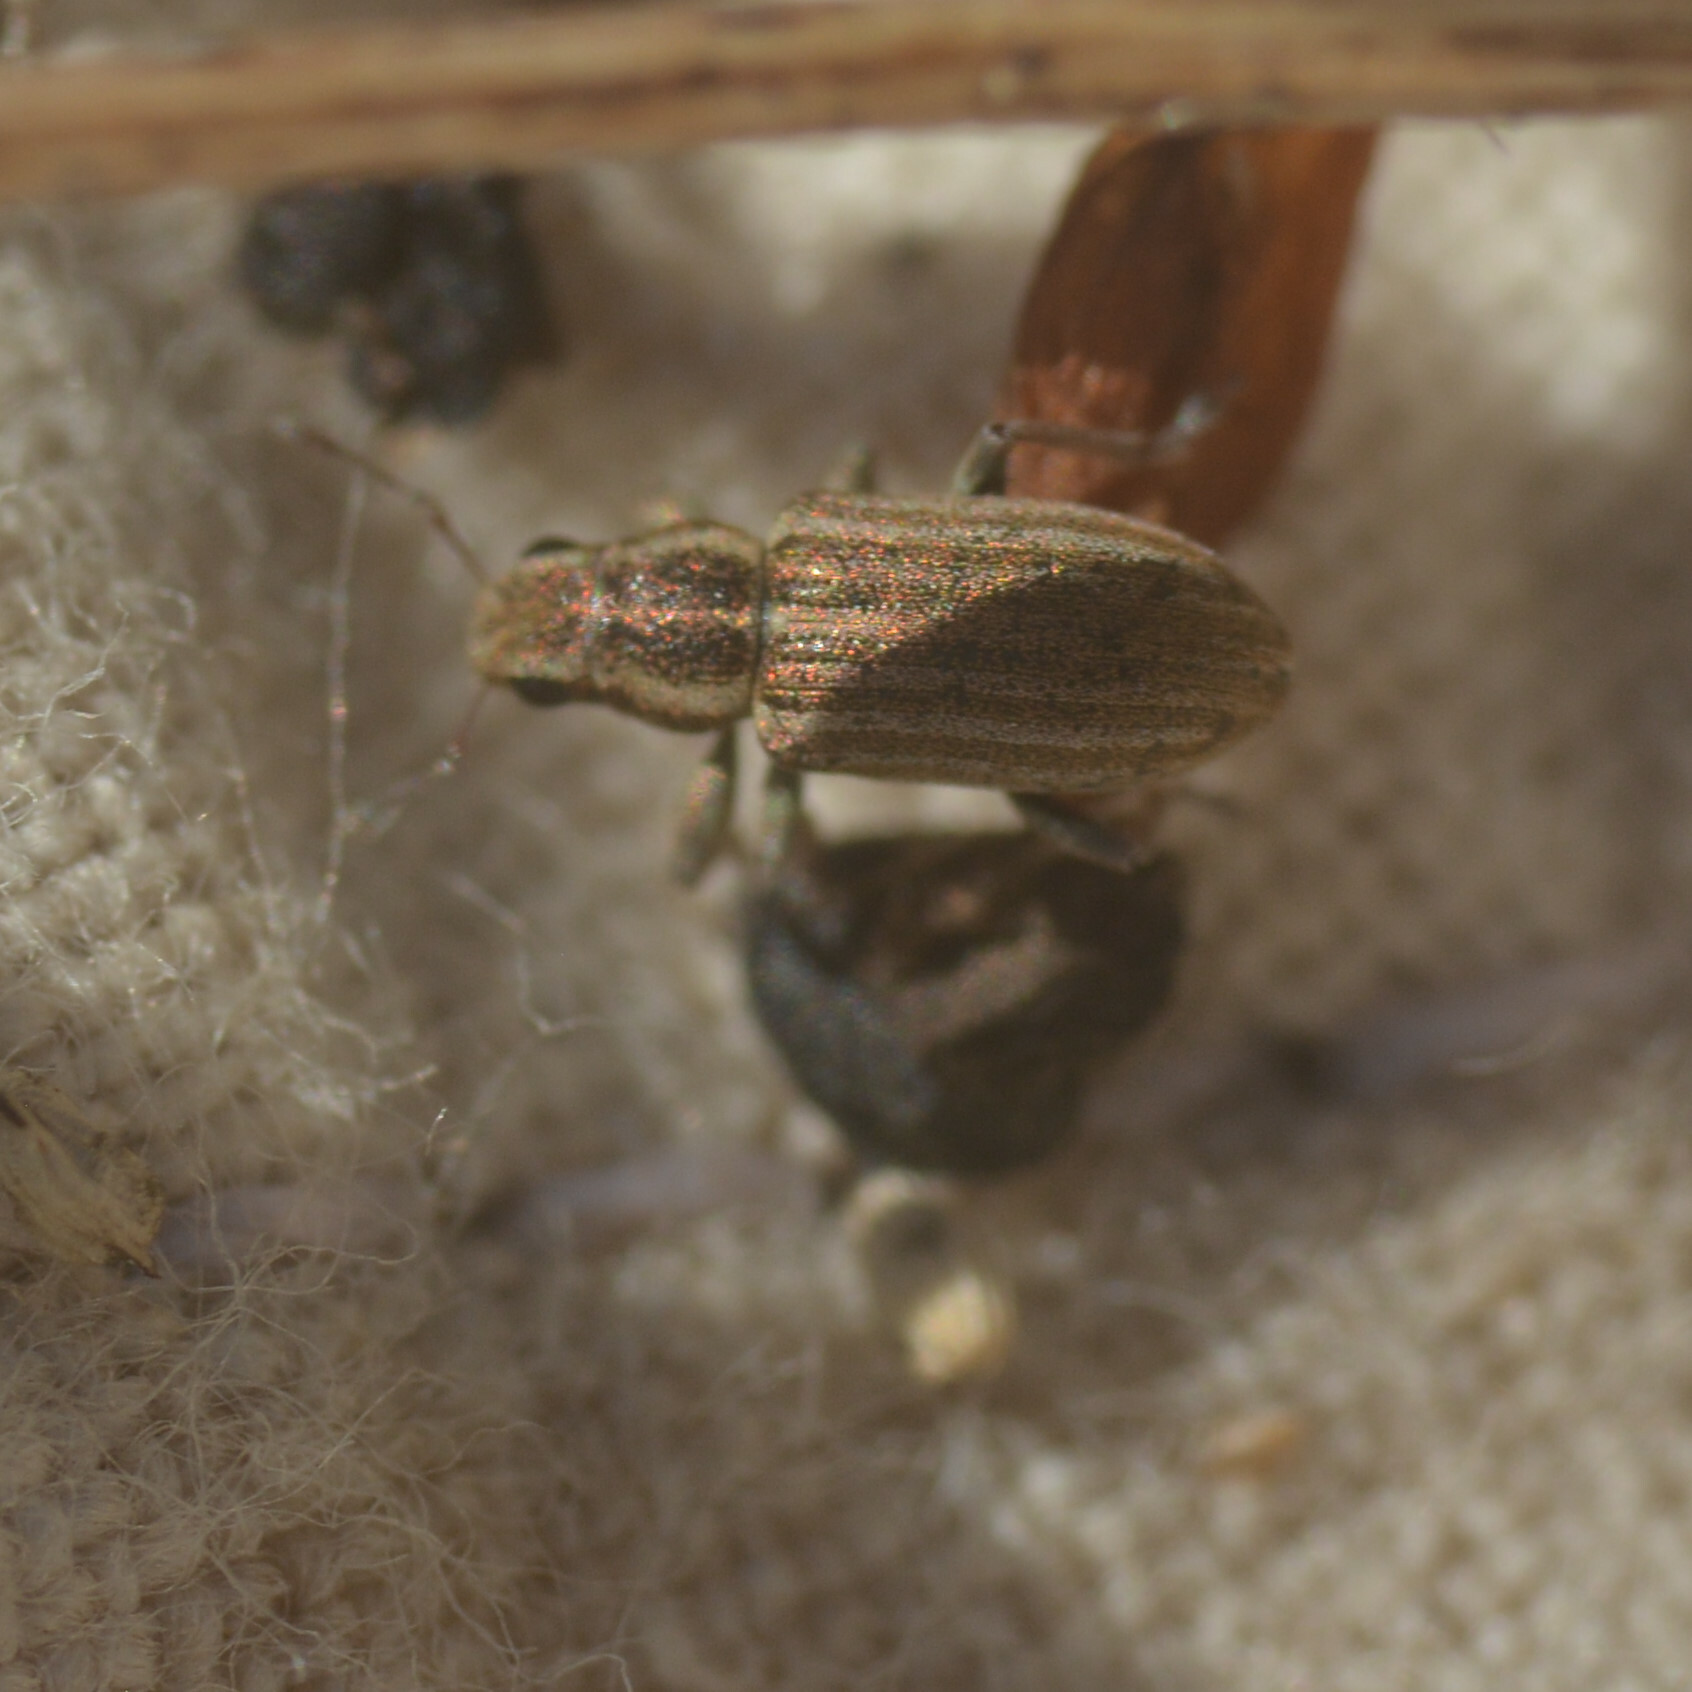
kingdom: Animalia
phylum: Arthropoda
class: Insecta
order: Coleoptera
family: Curculionidae
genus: Sitona
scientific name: Sitona lineatus
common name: Weevil
